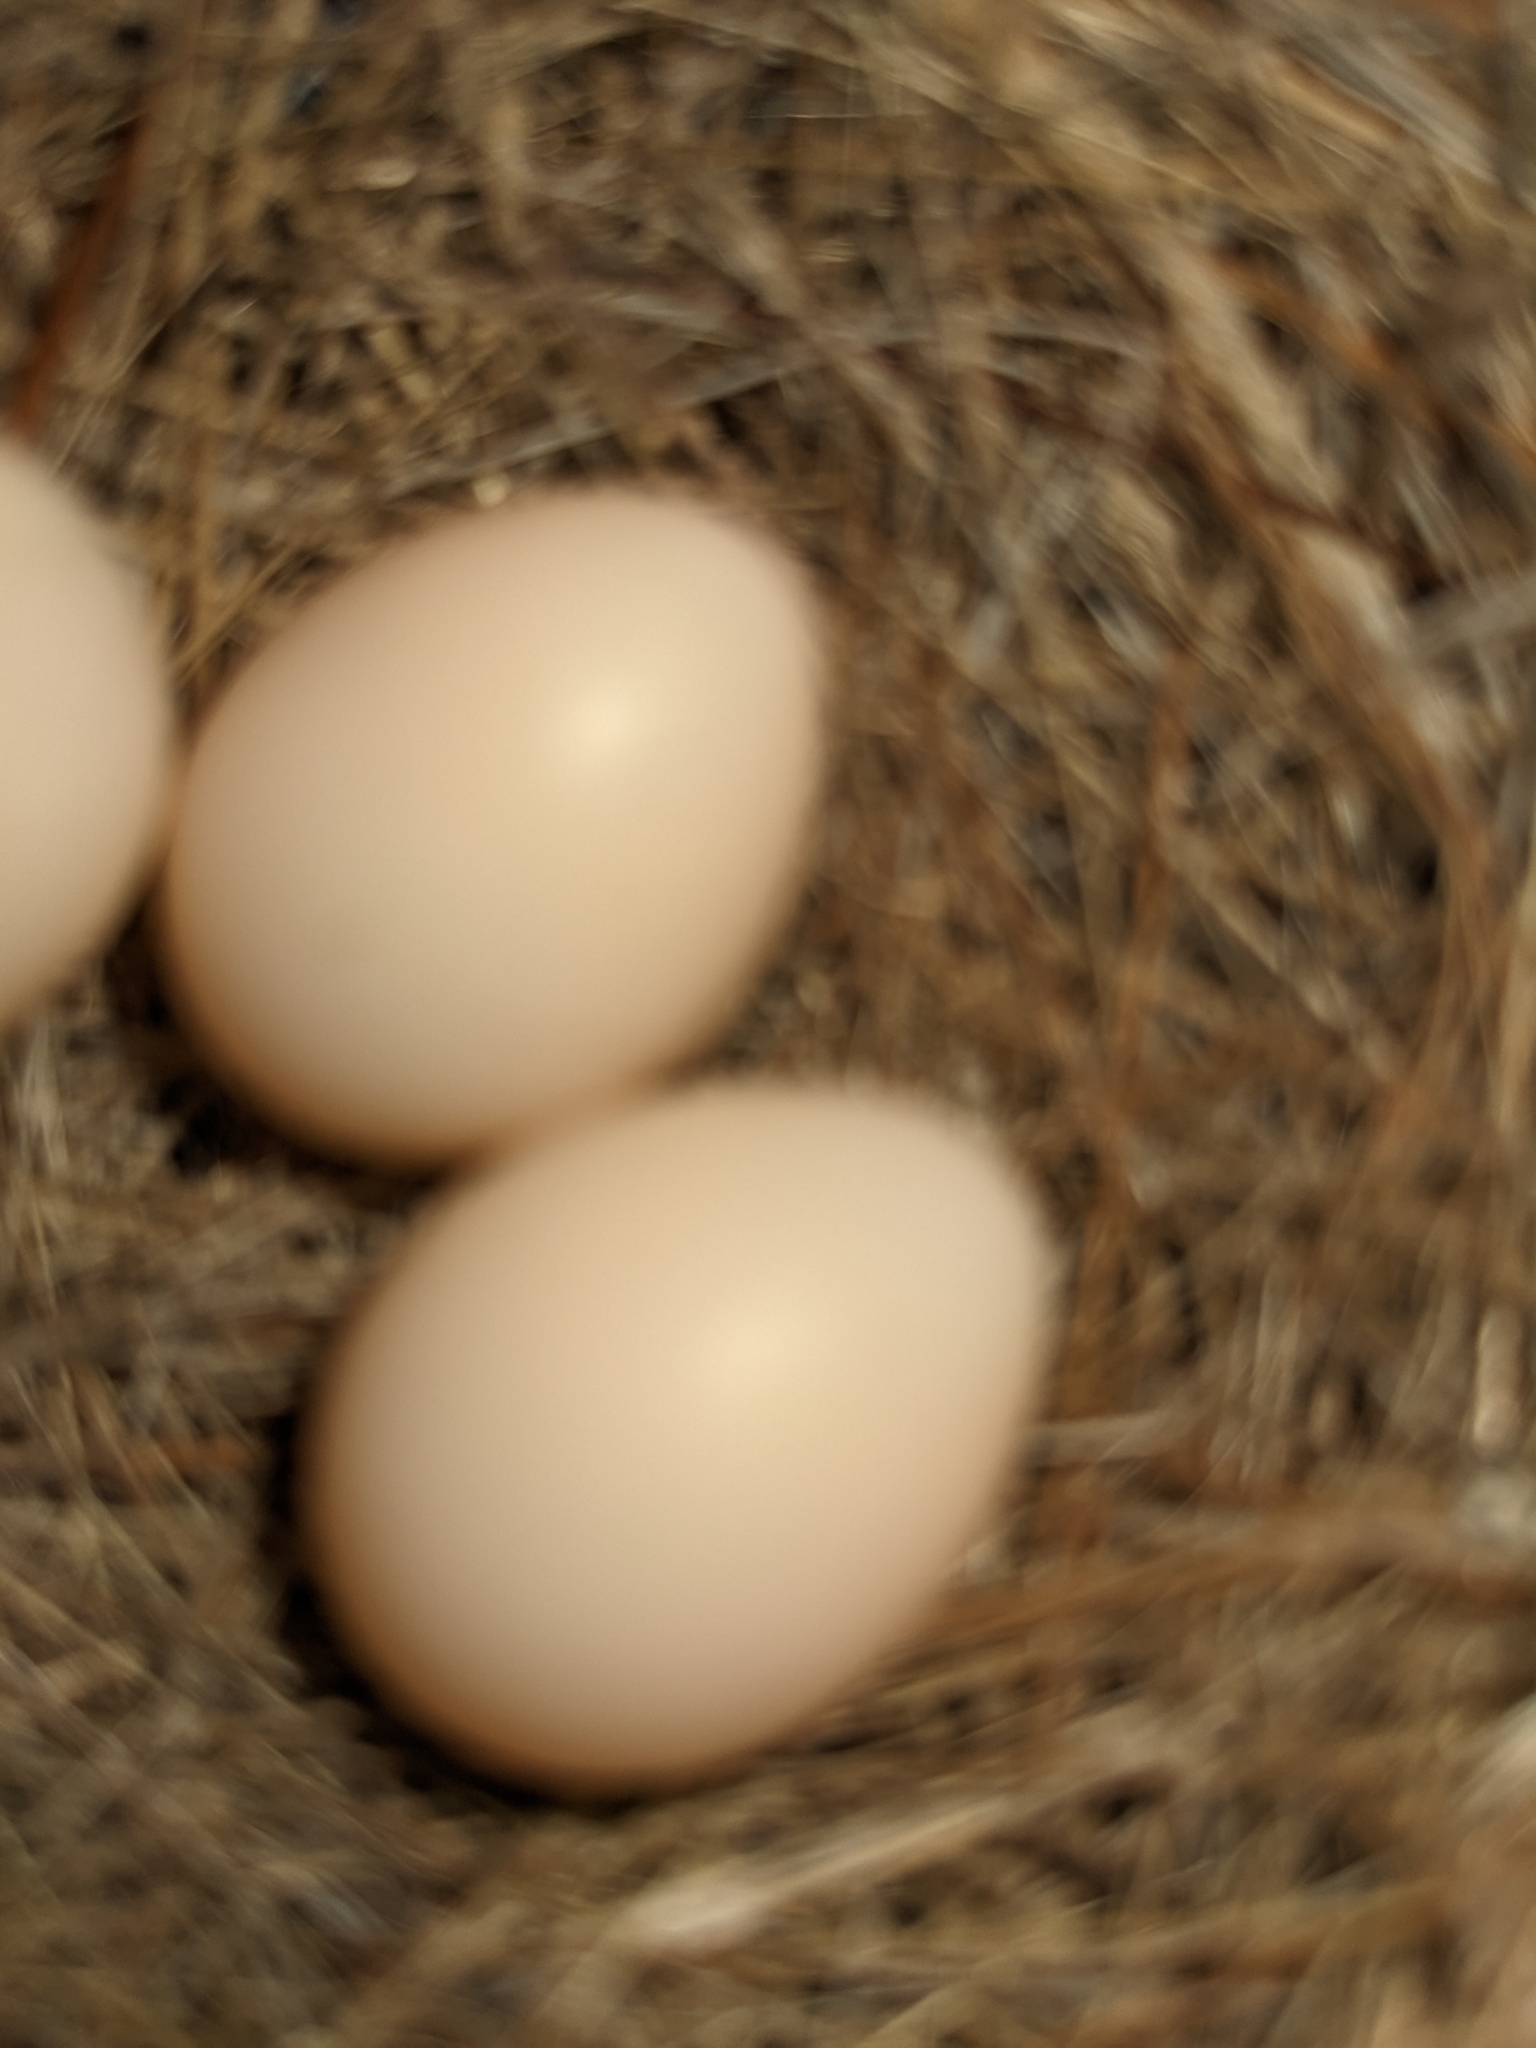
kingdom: Animalia
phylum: Chordata
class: Aves
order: Passeriformes
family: Tyrannidae
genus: Sayornis
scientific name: Sayornis phoebe
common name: Eastern phoebe
